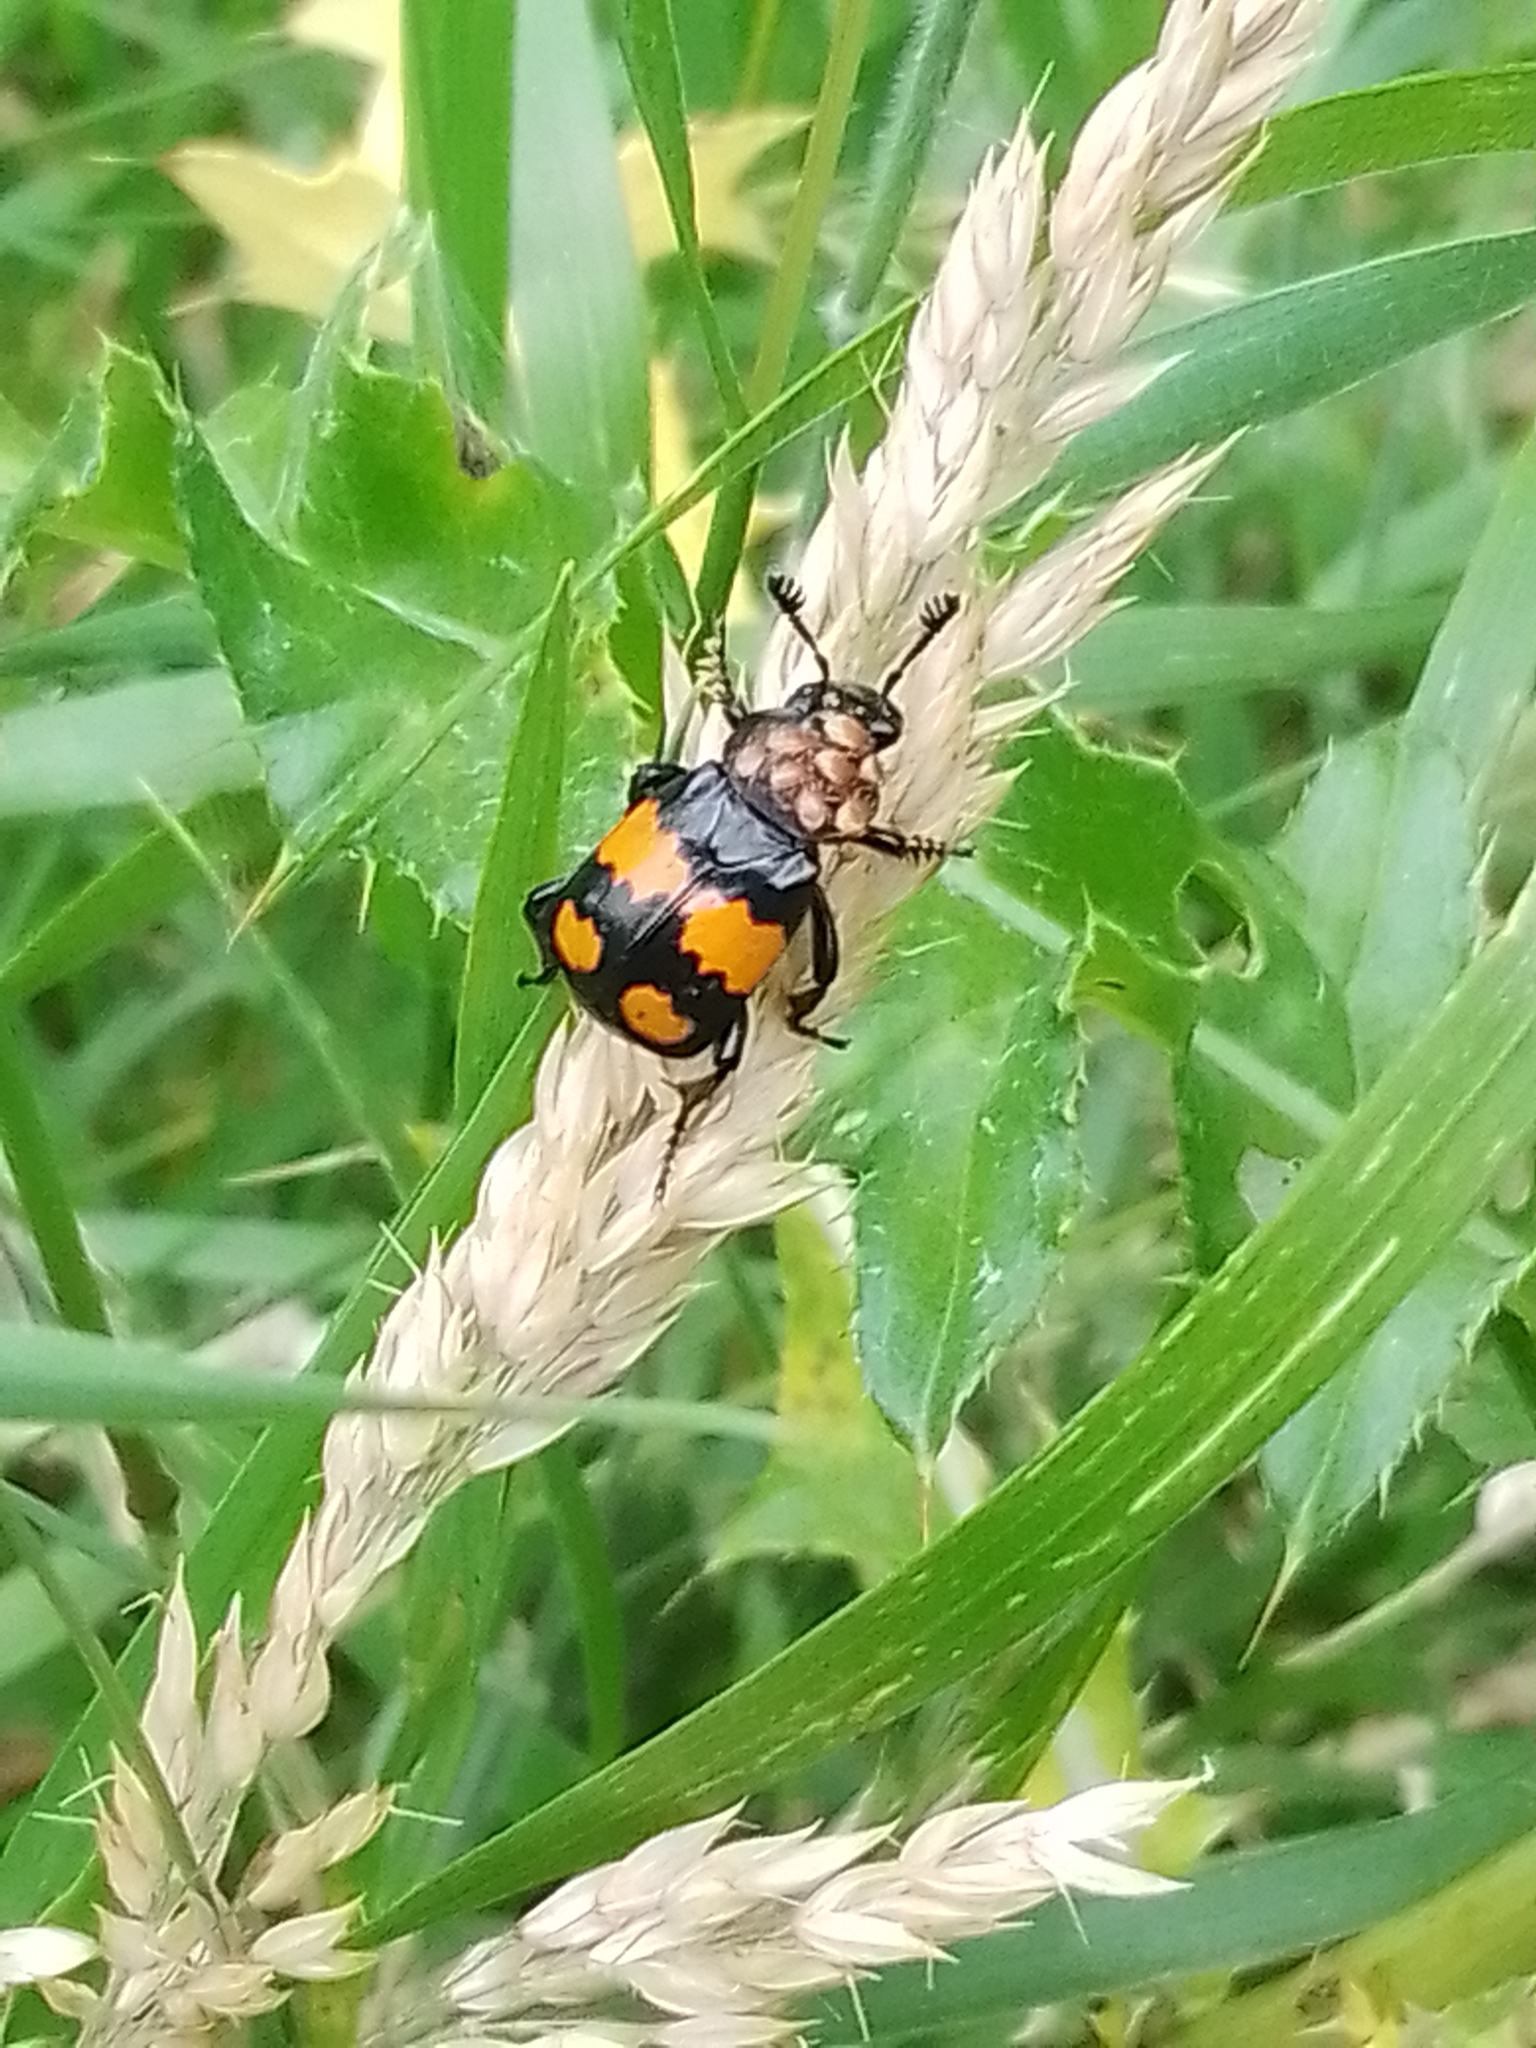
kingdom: Animalia
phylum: Arthropoda
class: Insecta
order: Coleoptera
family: Staphylinidae
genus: Nicrophorus
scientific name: Nicrophorus vespilloides
